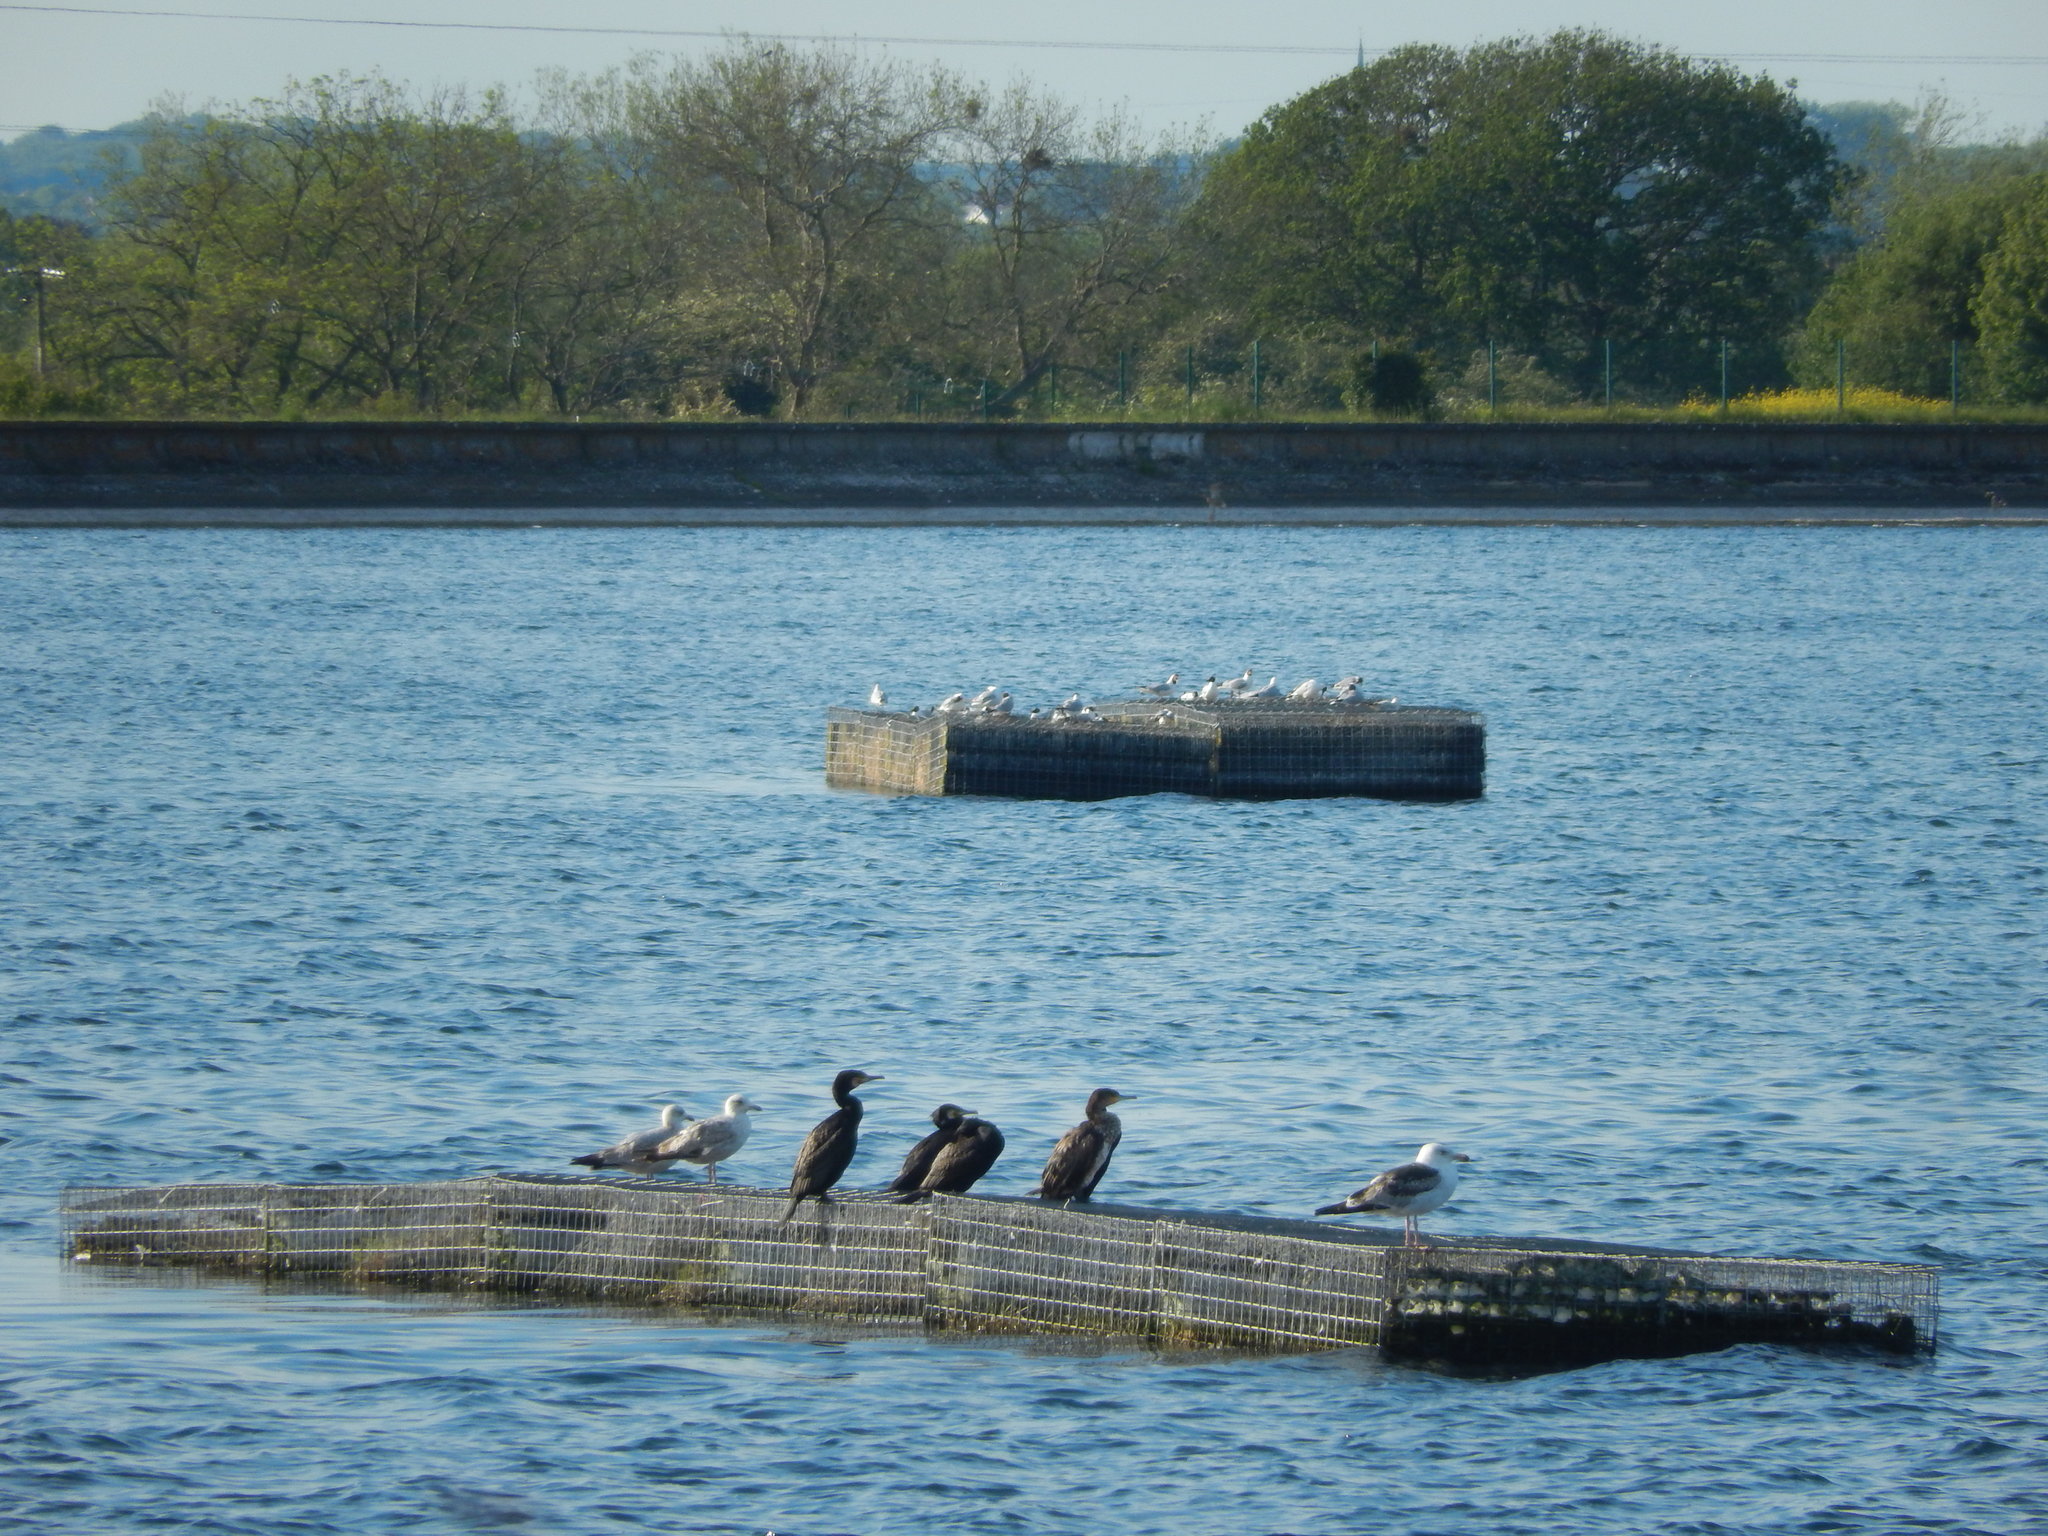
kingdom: Animalia
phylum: Chordata
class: Aves
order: Suliformes
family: Phalacrocoracidae
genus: Phalacrocorax
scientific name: Phalacrocorax carbo
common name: Great cormorant
